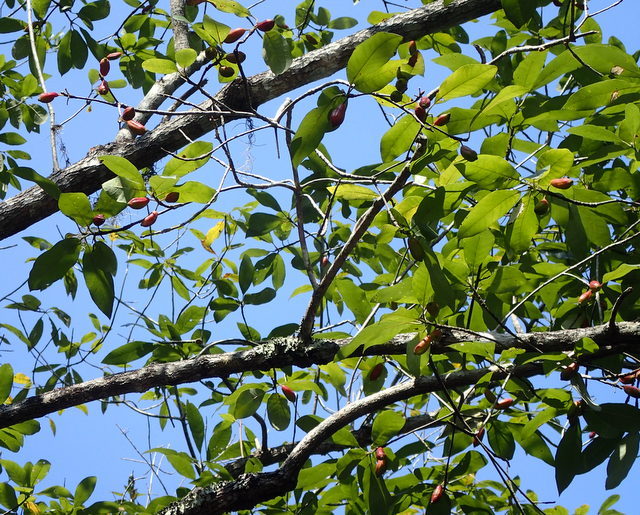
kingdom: Plantae
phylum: Tracheophyta
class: Magnoliopsida
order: Cornales
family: Nyssaceae
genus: Nyssa
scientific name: Nyssa ogeche
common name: Ogeechee tupelo
